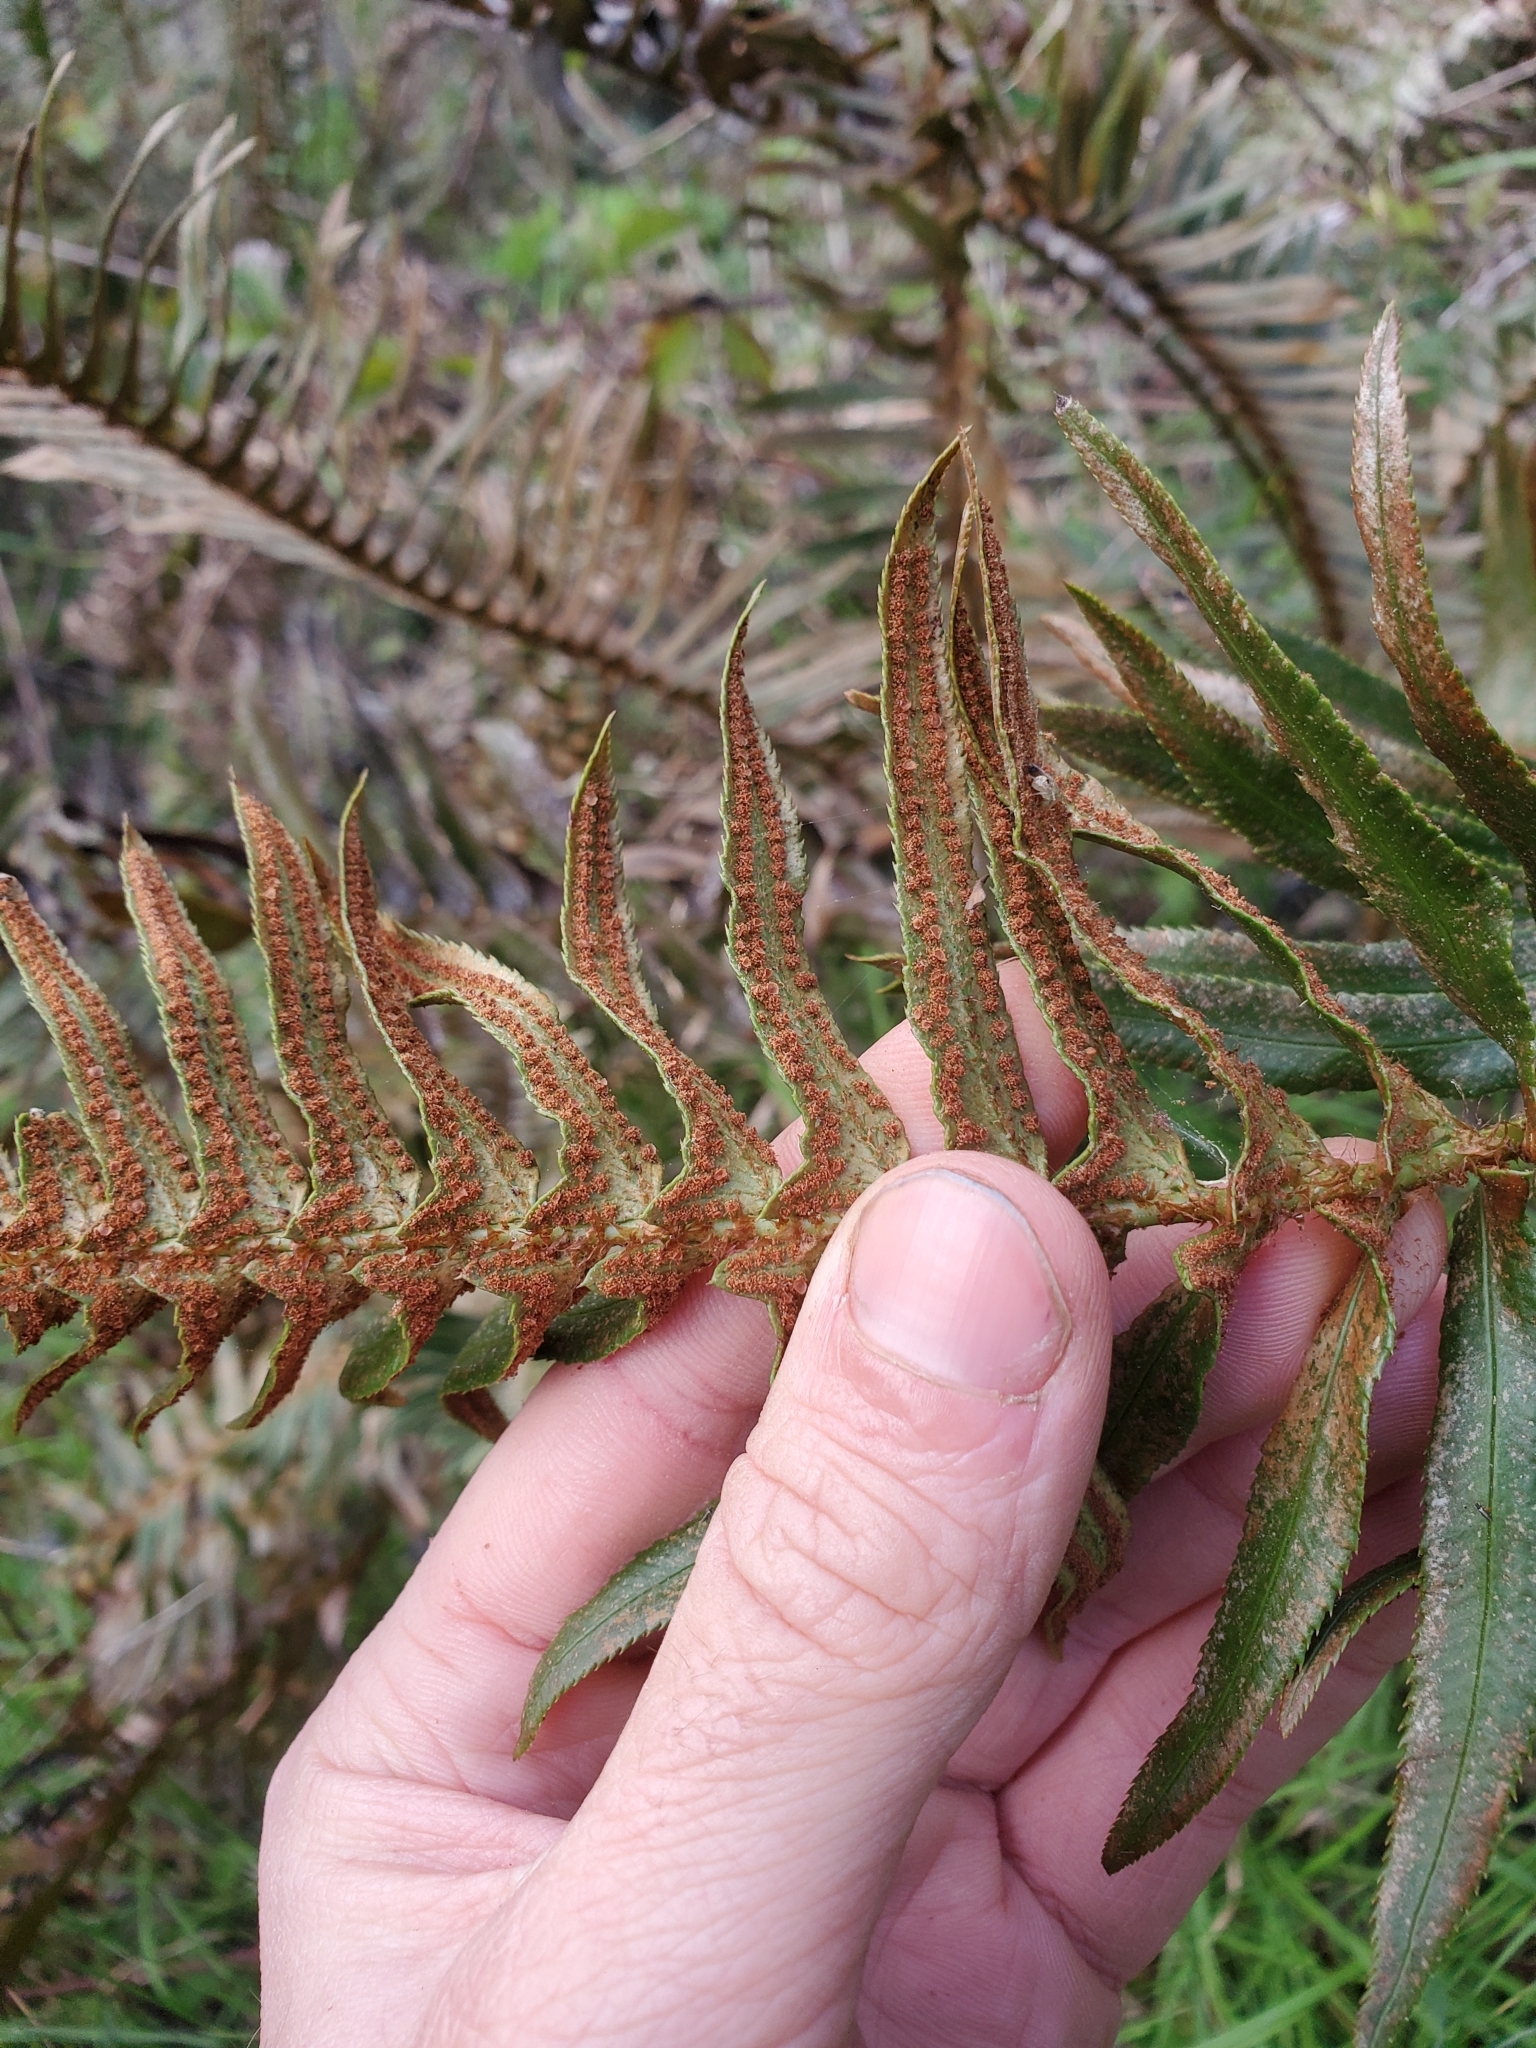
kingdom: Plantae
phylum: Tracheophyta
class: Polypodiopsida
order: Polypodiales
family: Dryopteridaceae
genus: Polystichum
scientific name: Polystichum munitum
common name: Western sword-fern
